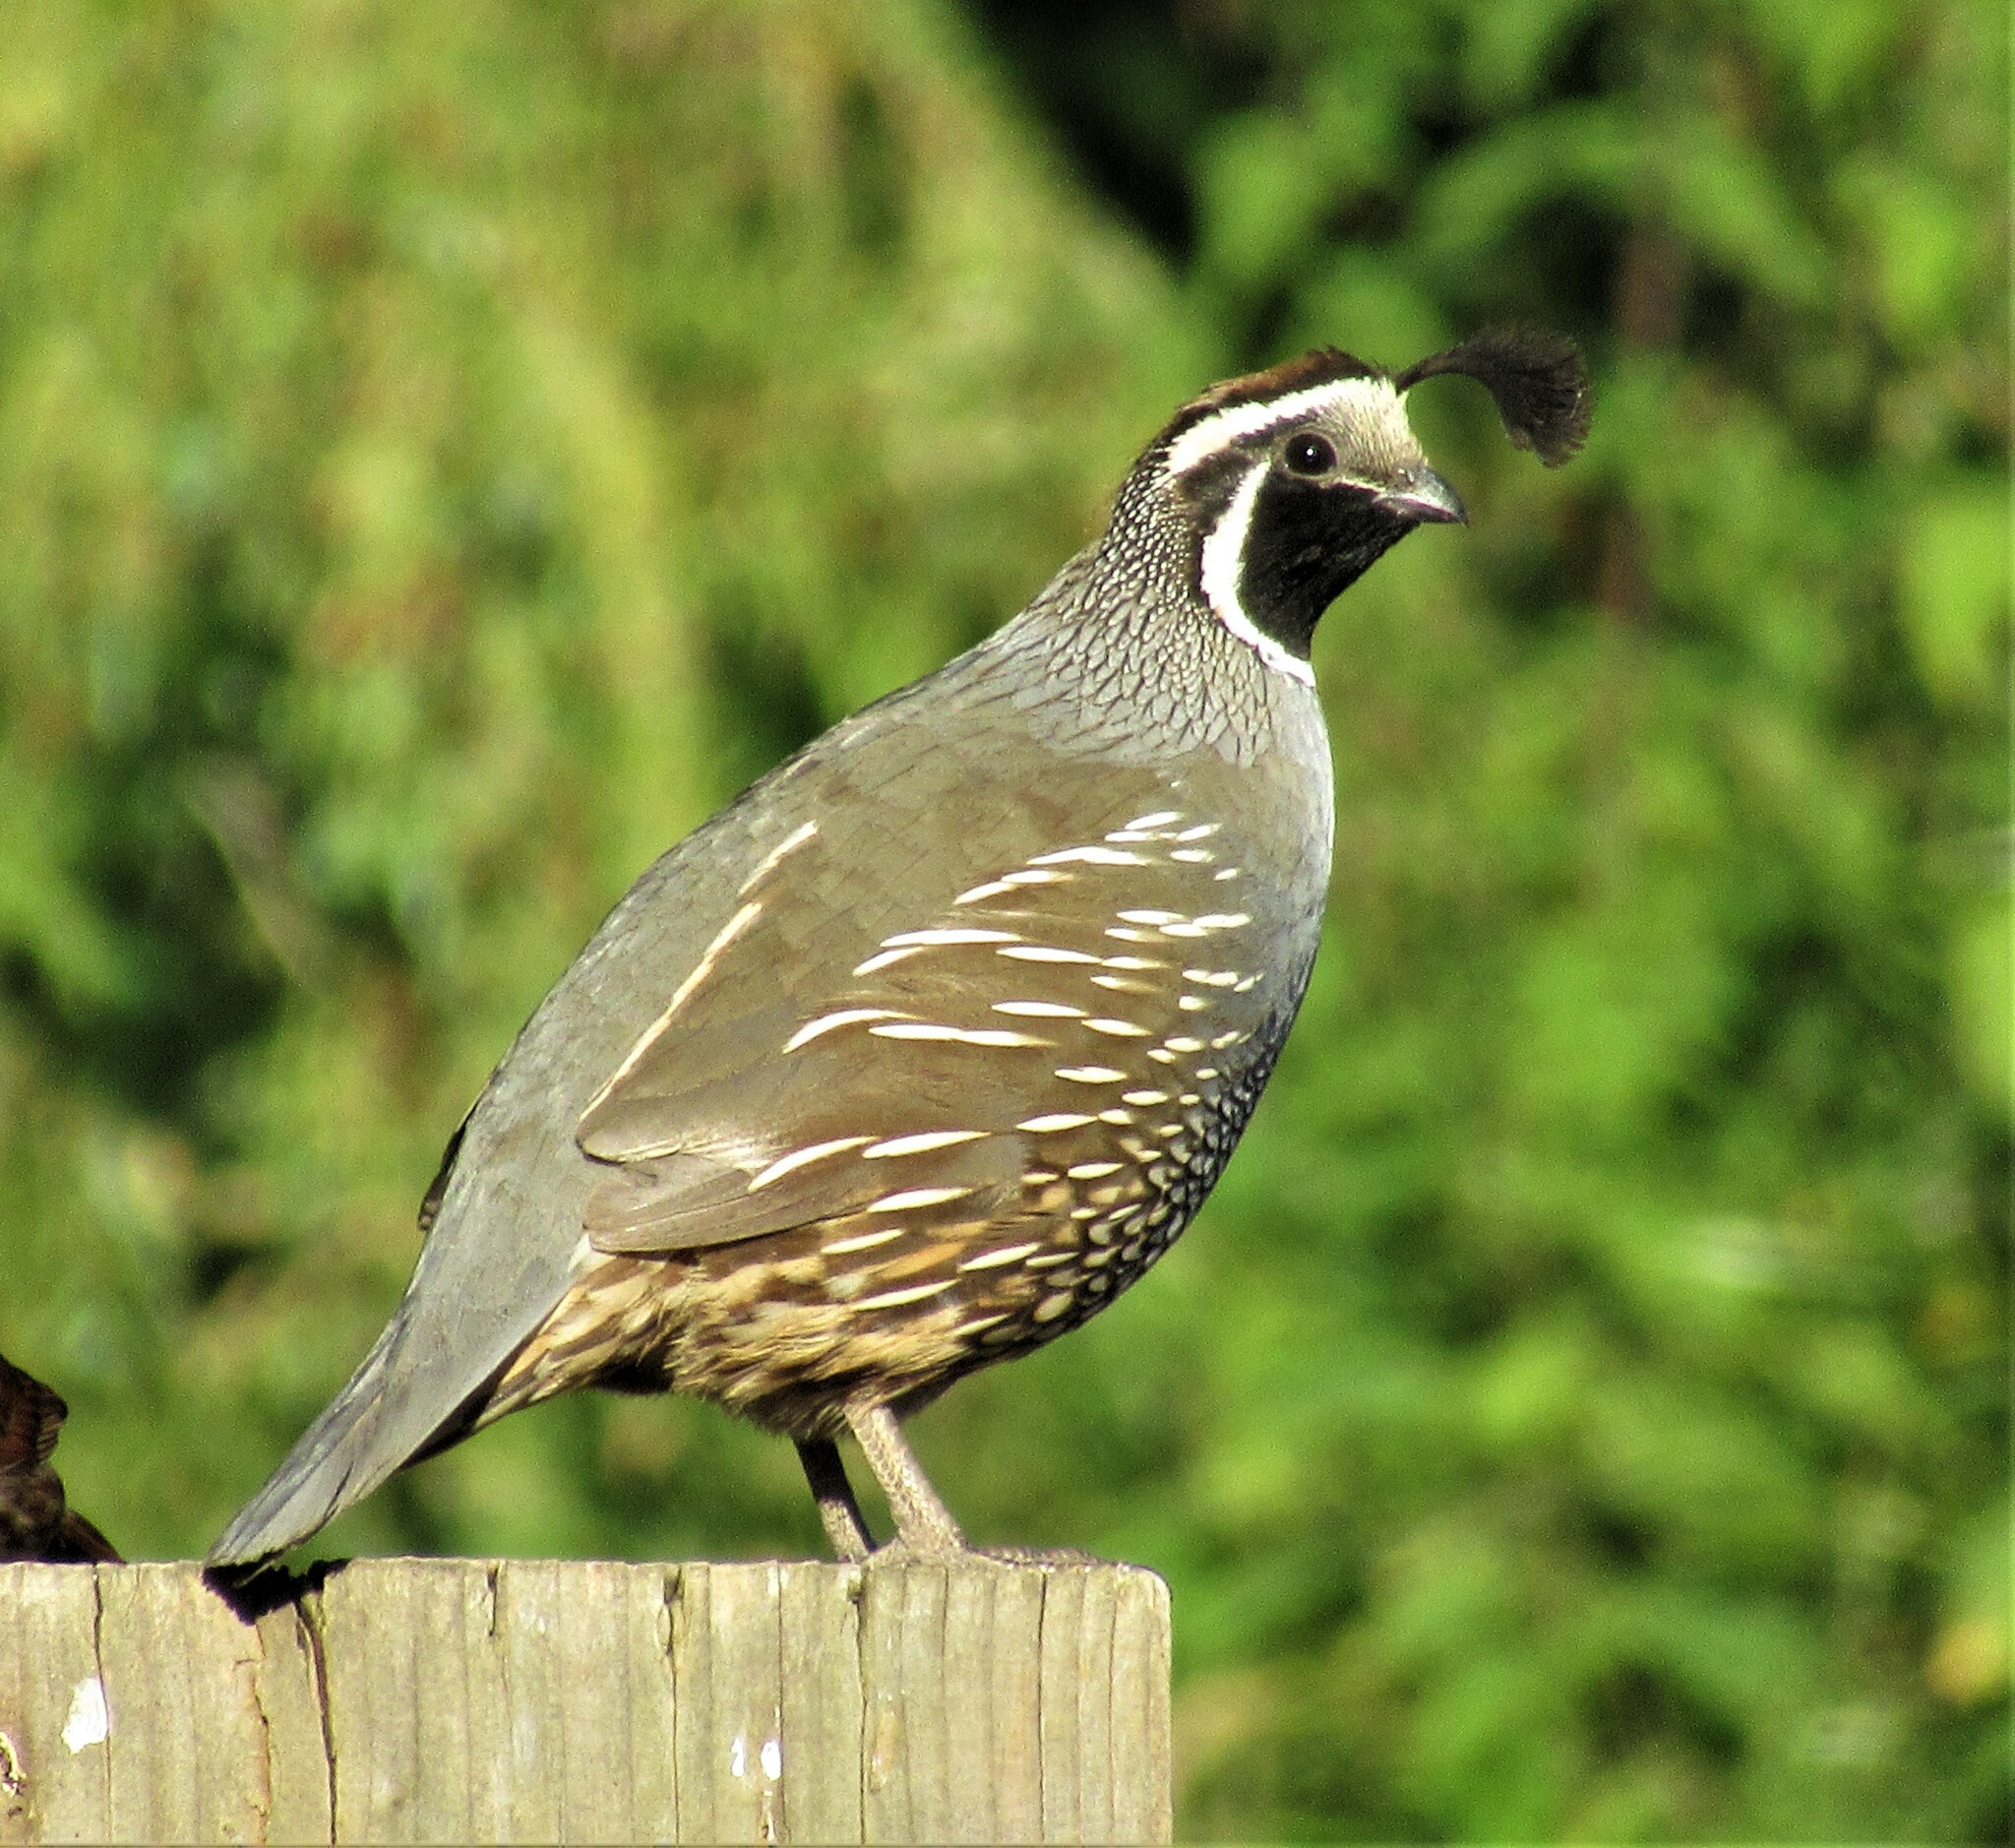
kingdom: Animalia
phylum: Chordata
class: Aves
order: Galliformes
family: Odontophoridae
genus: Callipepla
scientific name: Callipepla californica
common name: California quail
